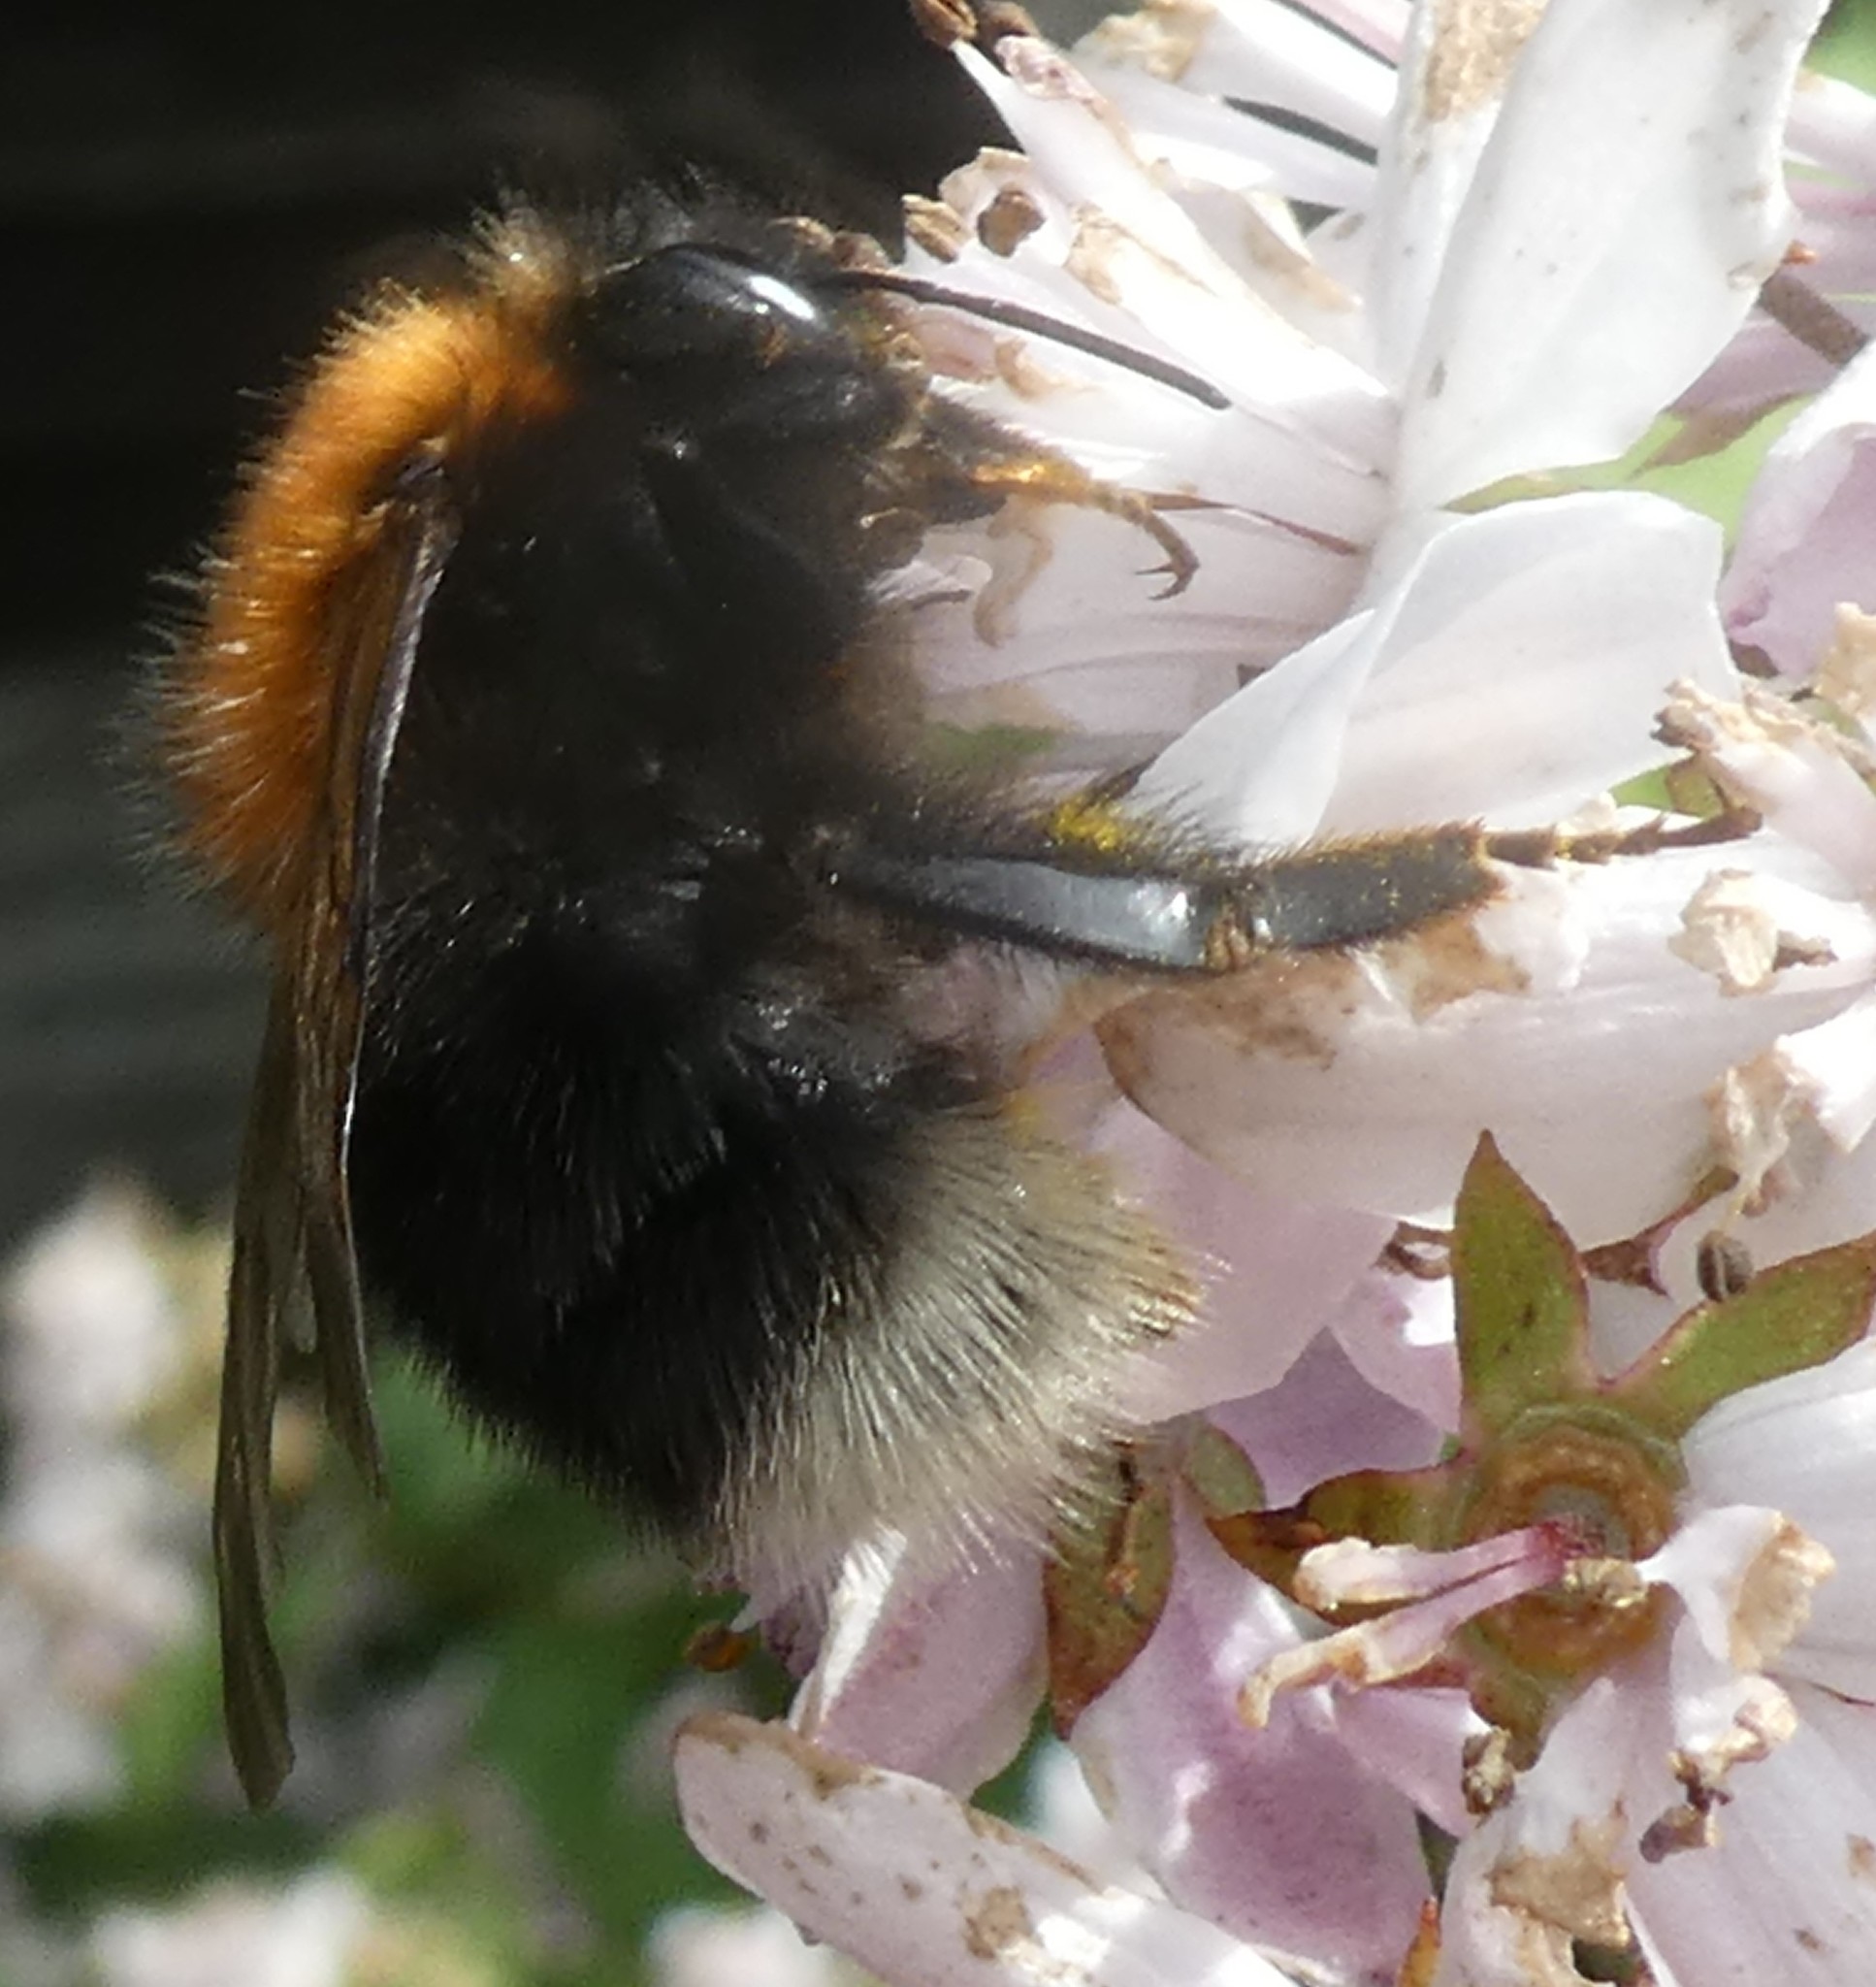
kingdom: Animalia
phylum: Arthropoda
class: Insecta
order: Hymenoptera
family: Apidae
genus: Bombus
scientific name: Bombus hypnorum
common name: New garden bumblebee
